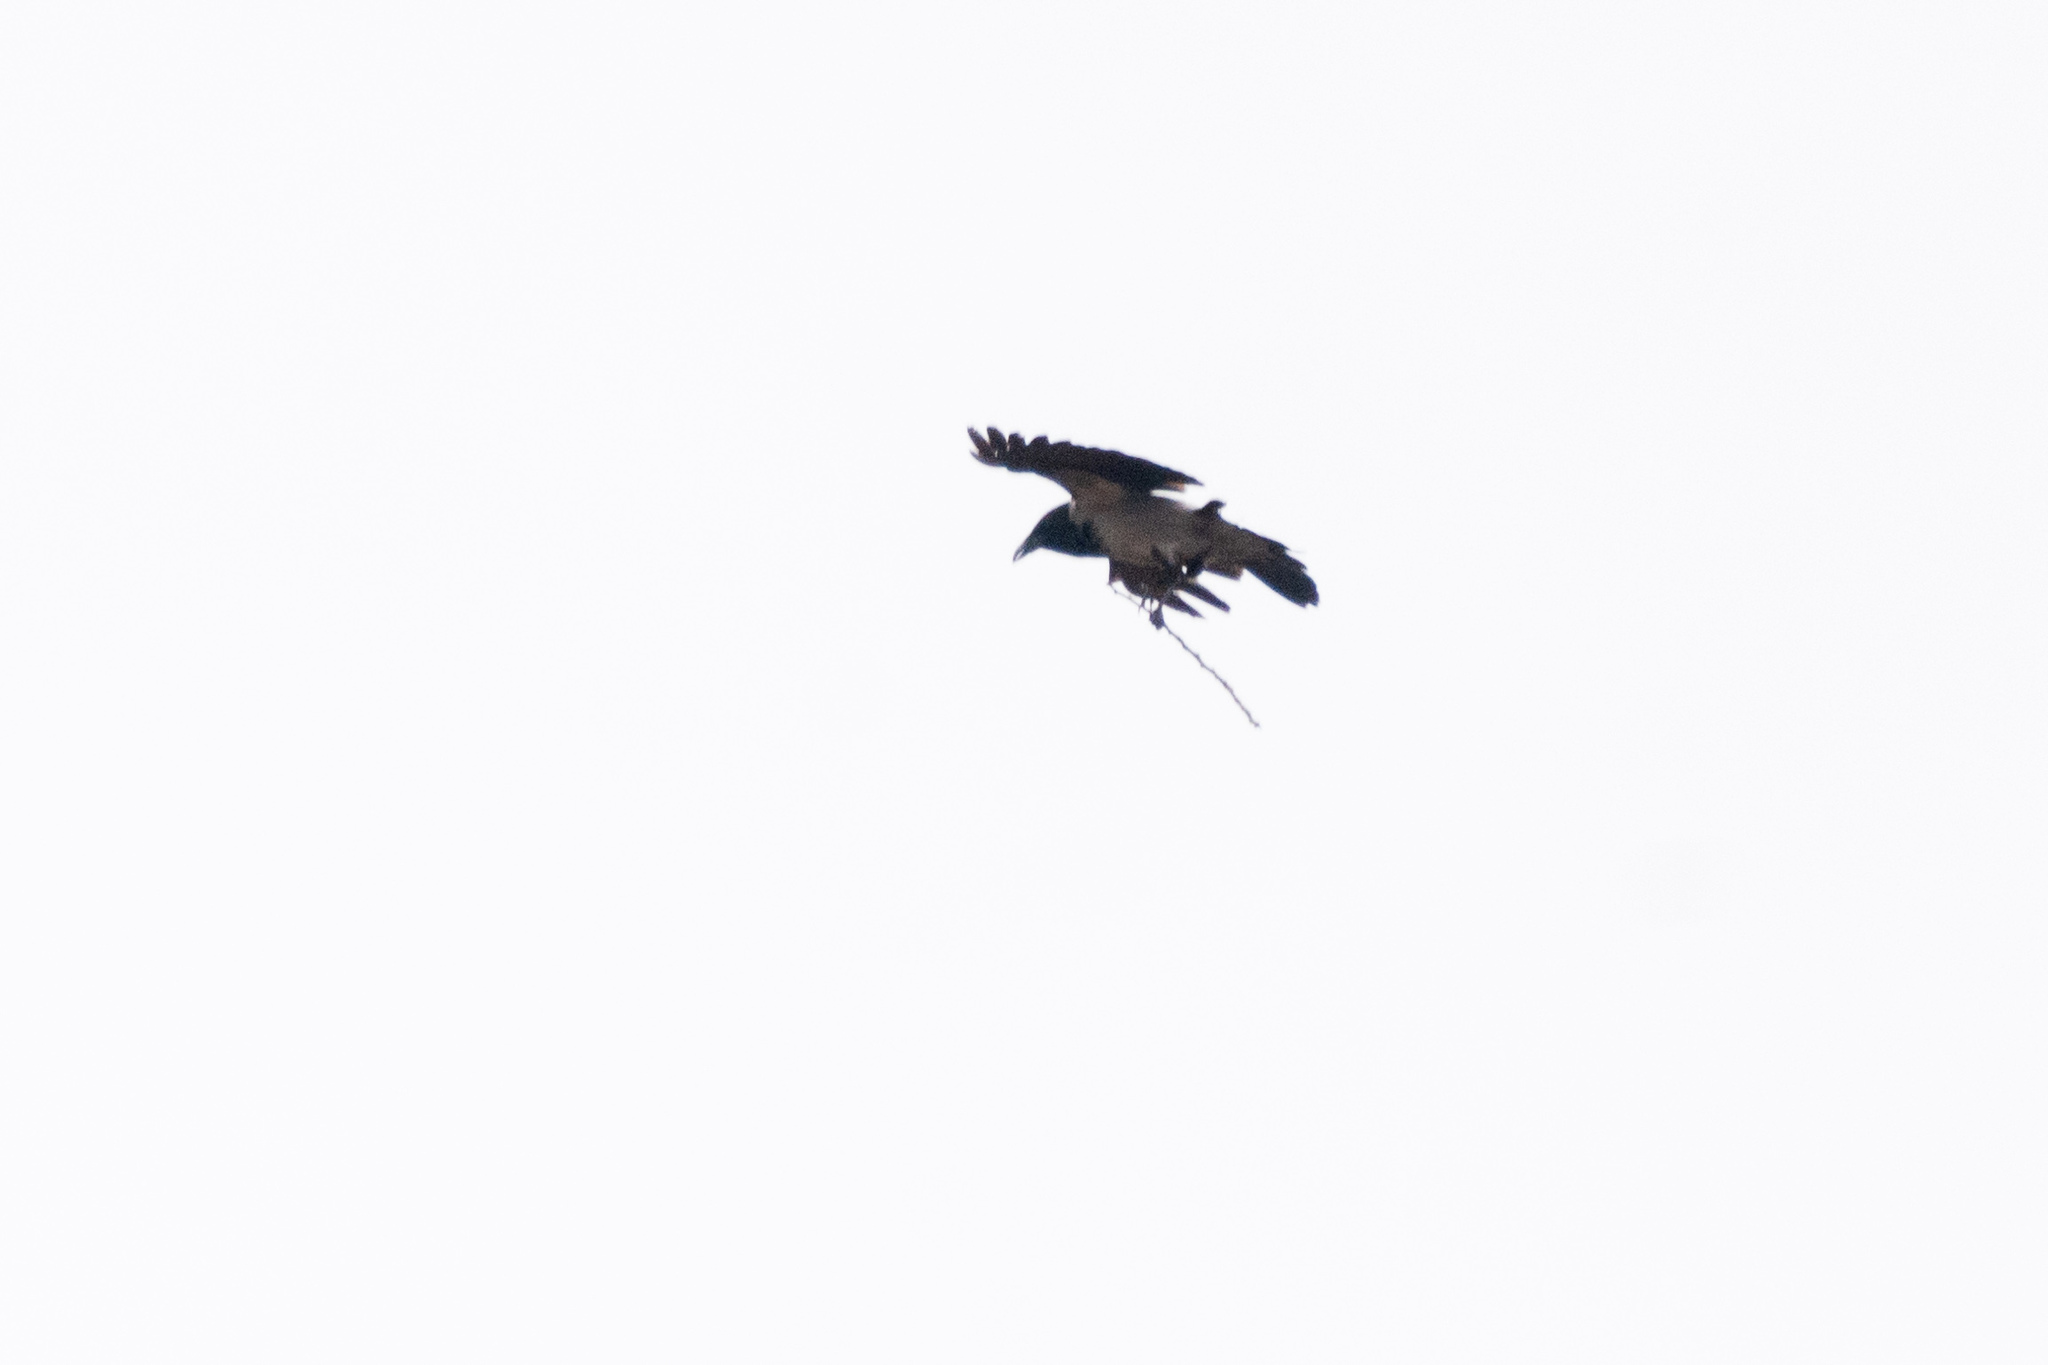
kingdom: Animalia
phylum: Chordata
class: Aves
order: Passeriformes
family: Corvidae
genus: Corvus
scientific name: Corvus cornix
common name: Hooded crow
